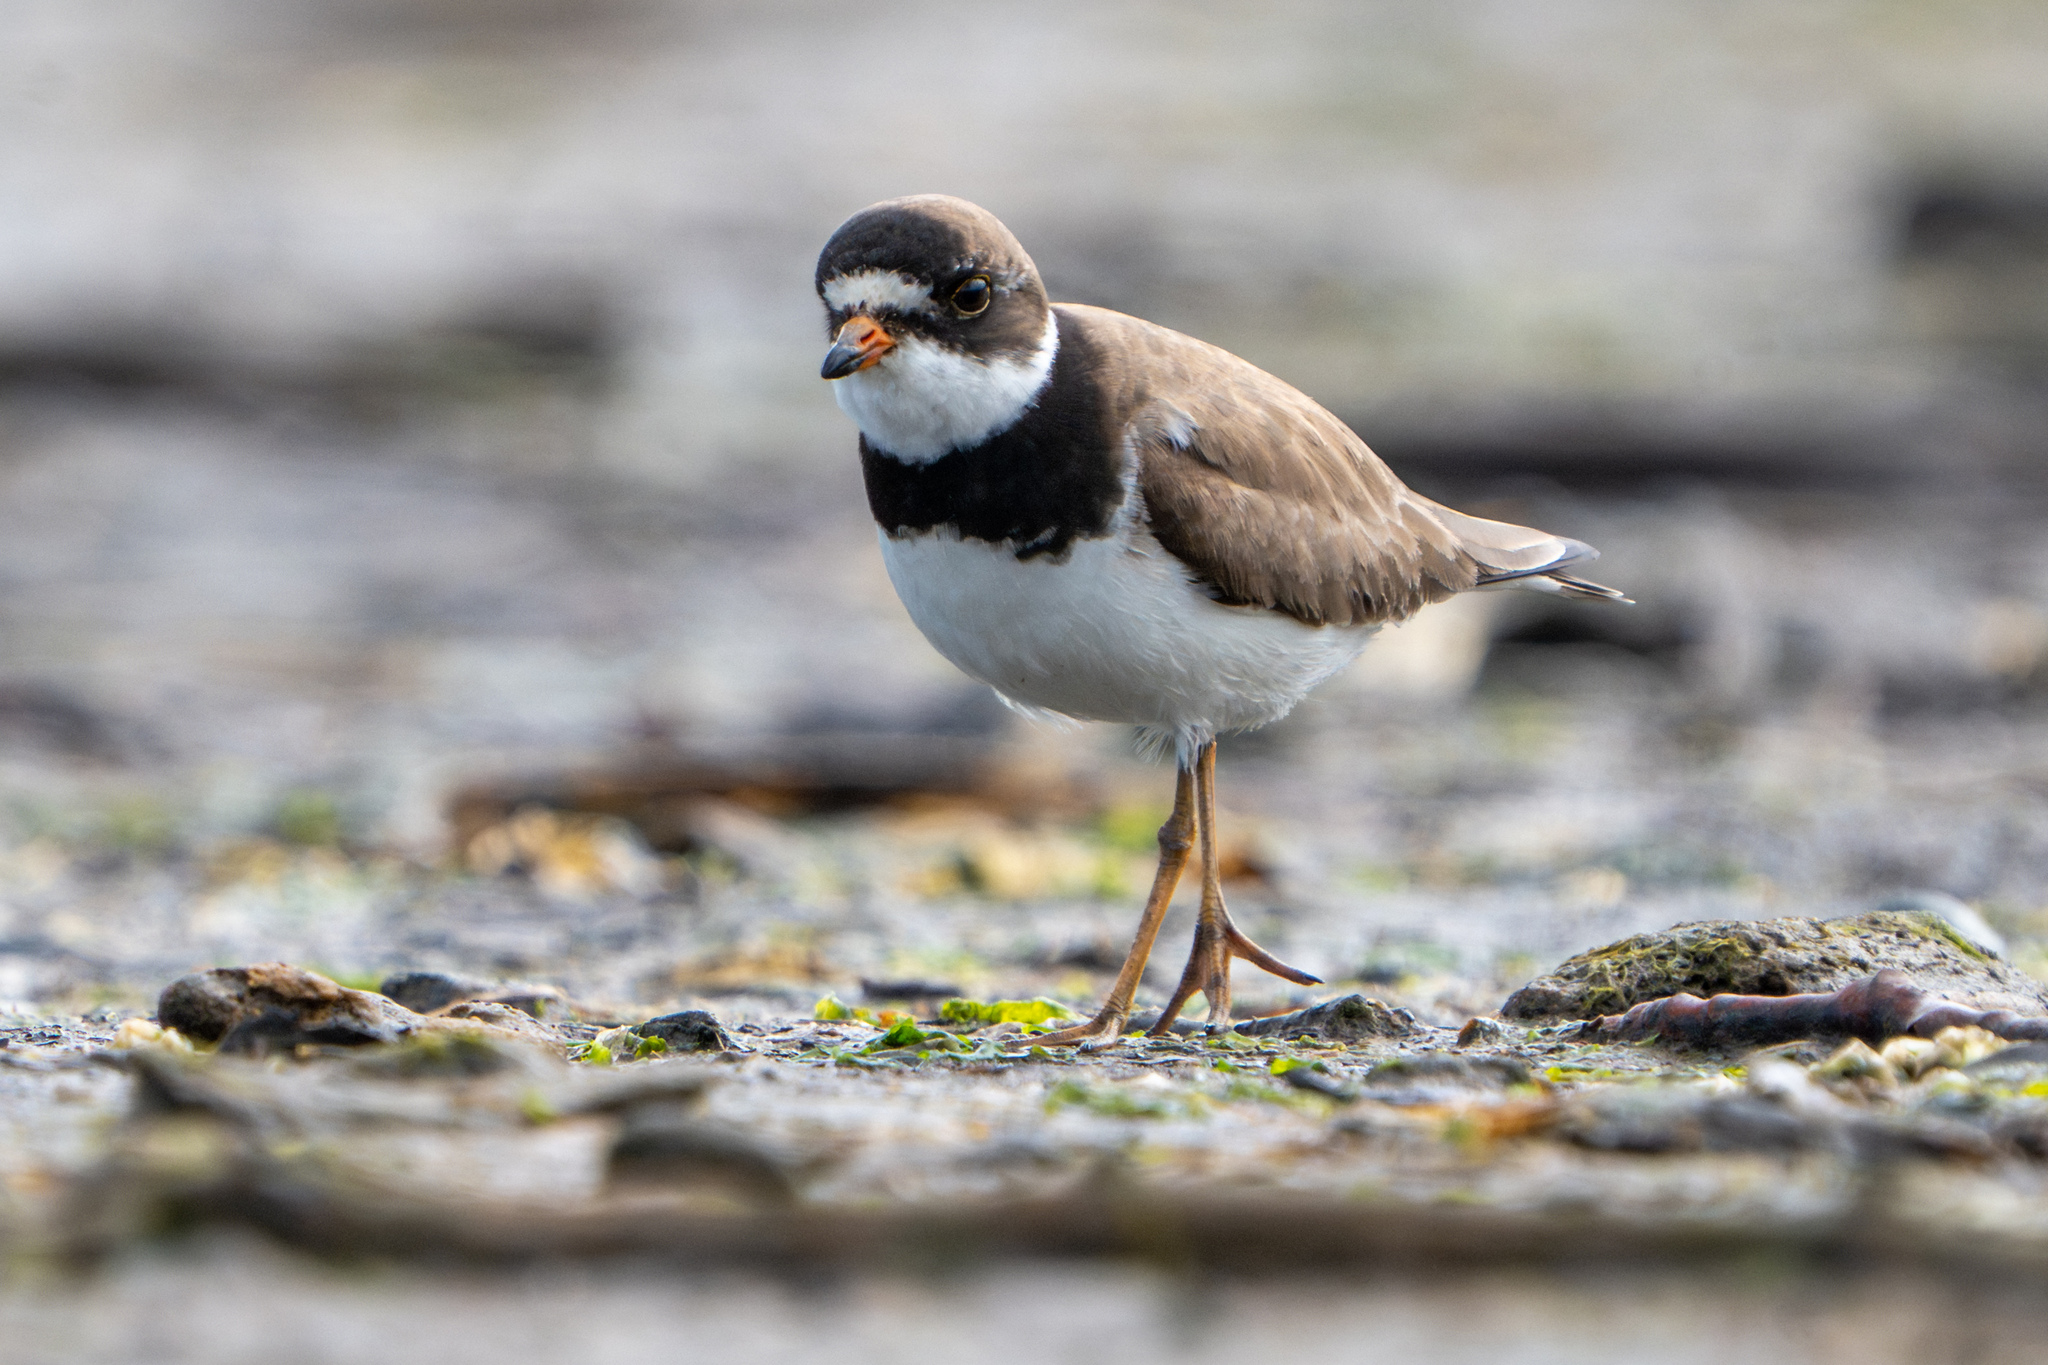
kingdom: Animalia
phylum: Chordata
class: Aves
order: Charadriiformes
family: Charadriidae
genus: Charadrius
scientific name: Charadrius semipalmatus
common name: Semipalmated plover
